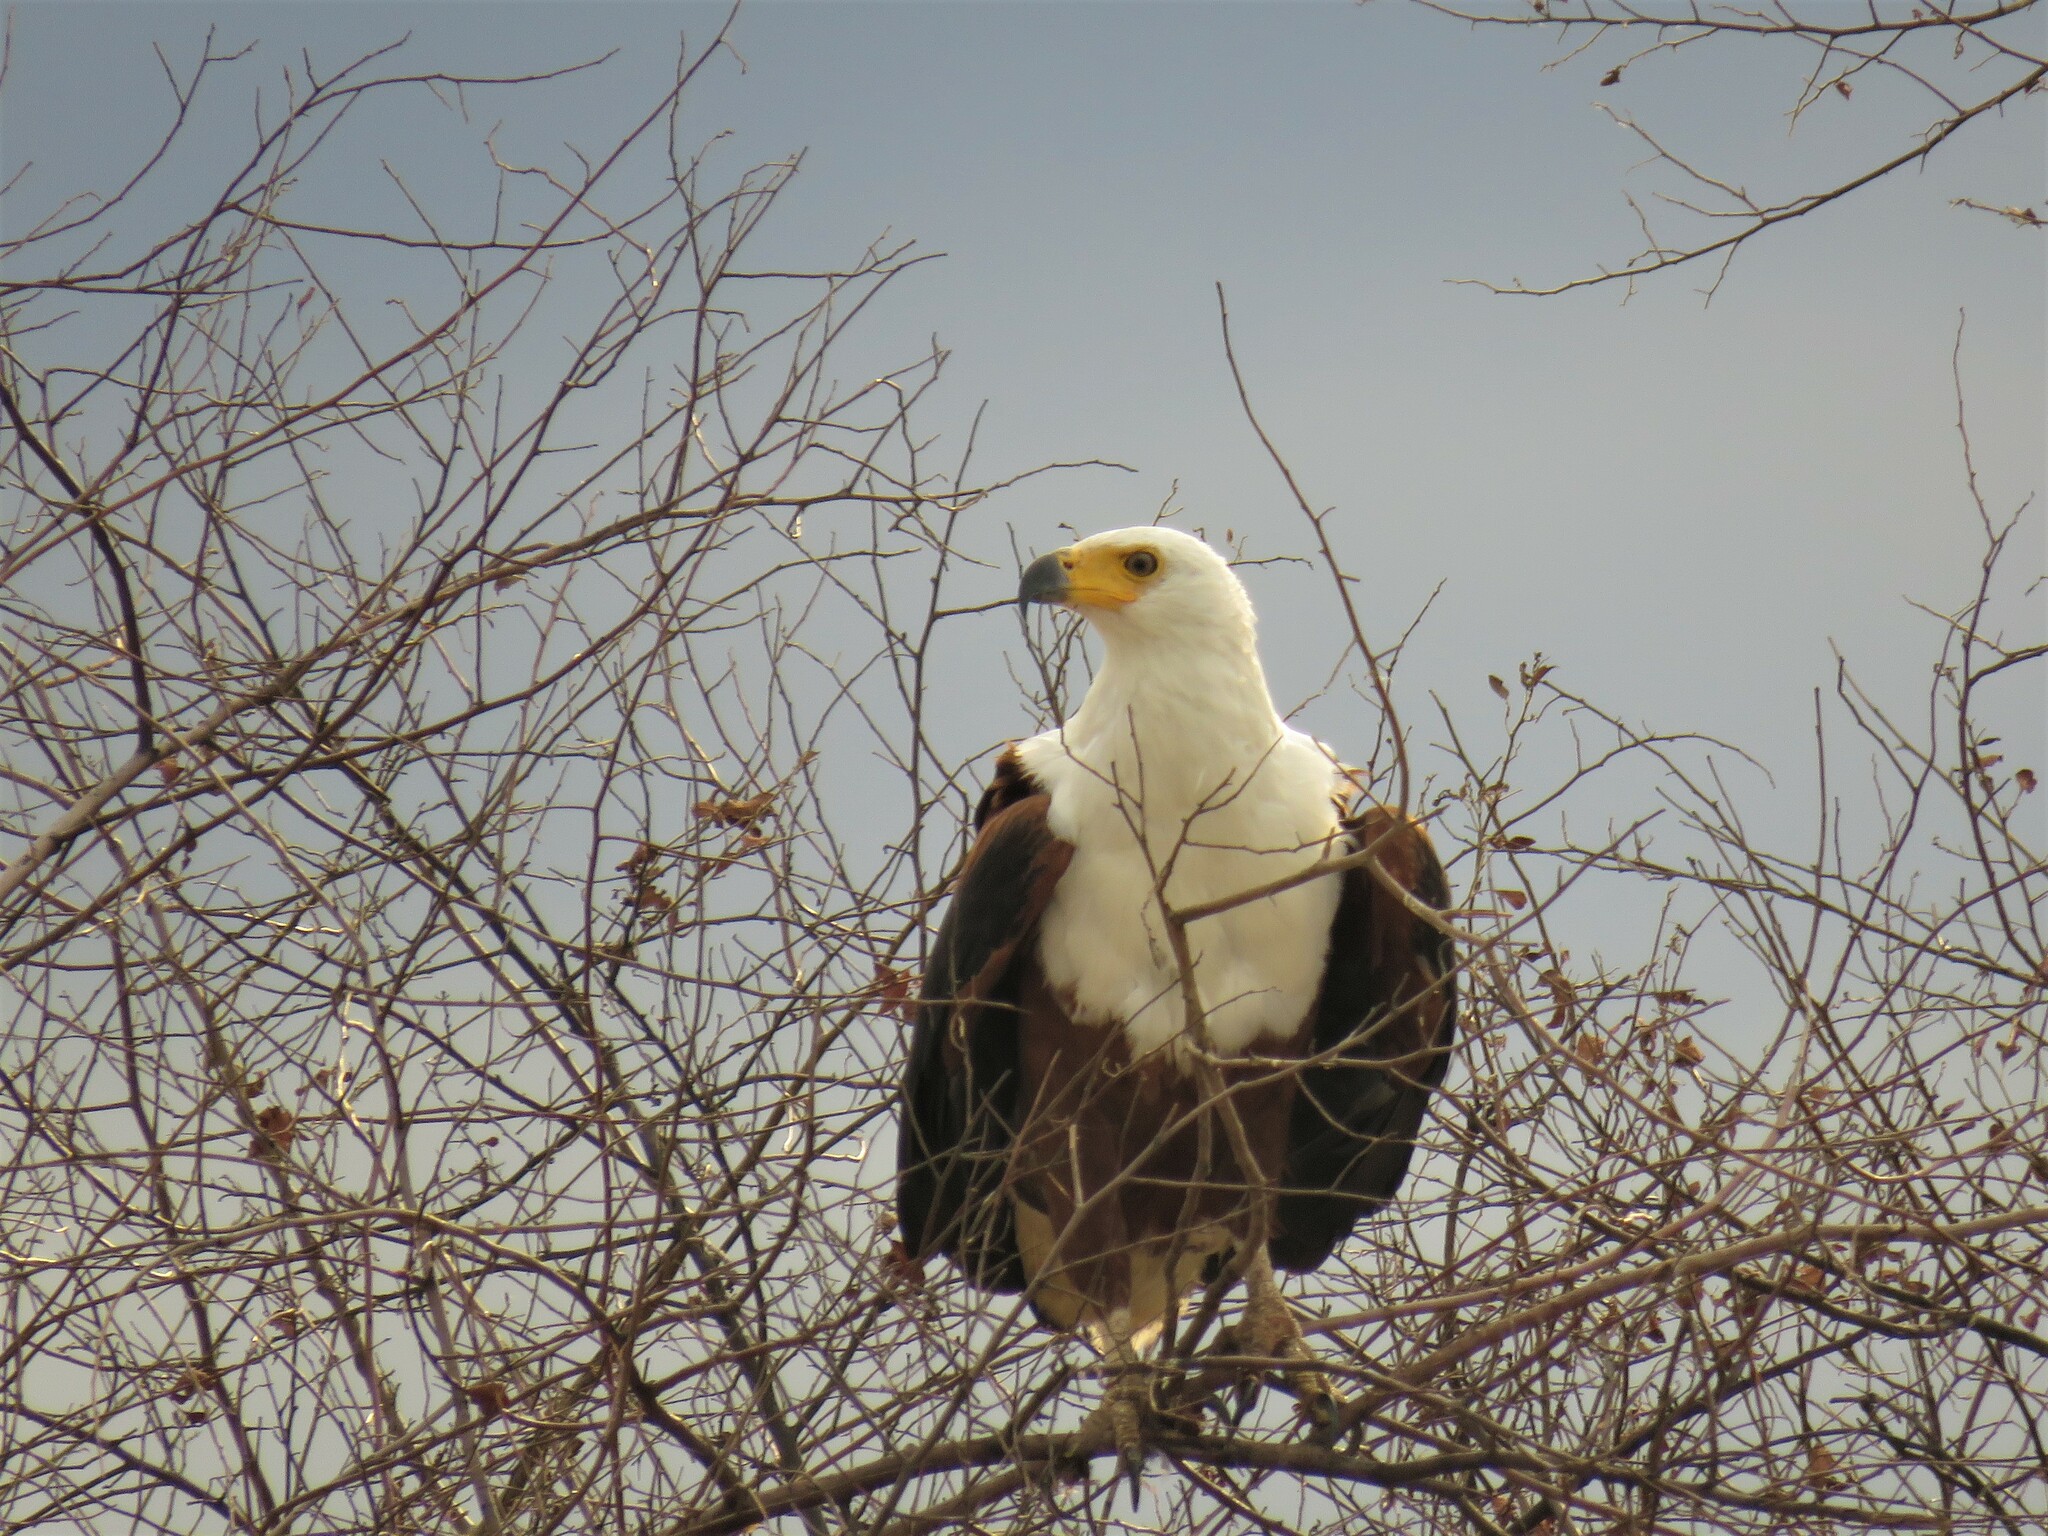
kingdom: Animalia
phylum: Chordata
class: Aves
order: Accipitriformes
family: Accipitridae
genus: Haliaeetus
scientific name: Haliaeetus vocifer
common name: African fish eagle
